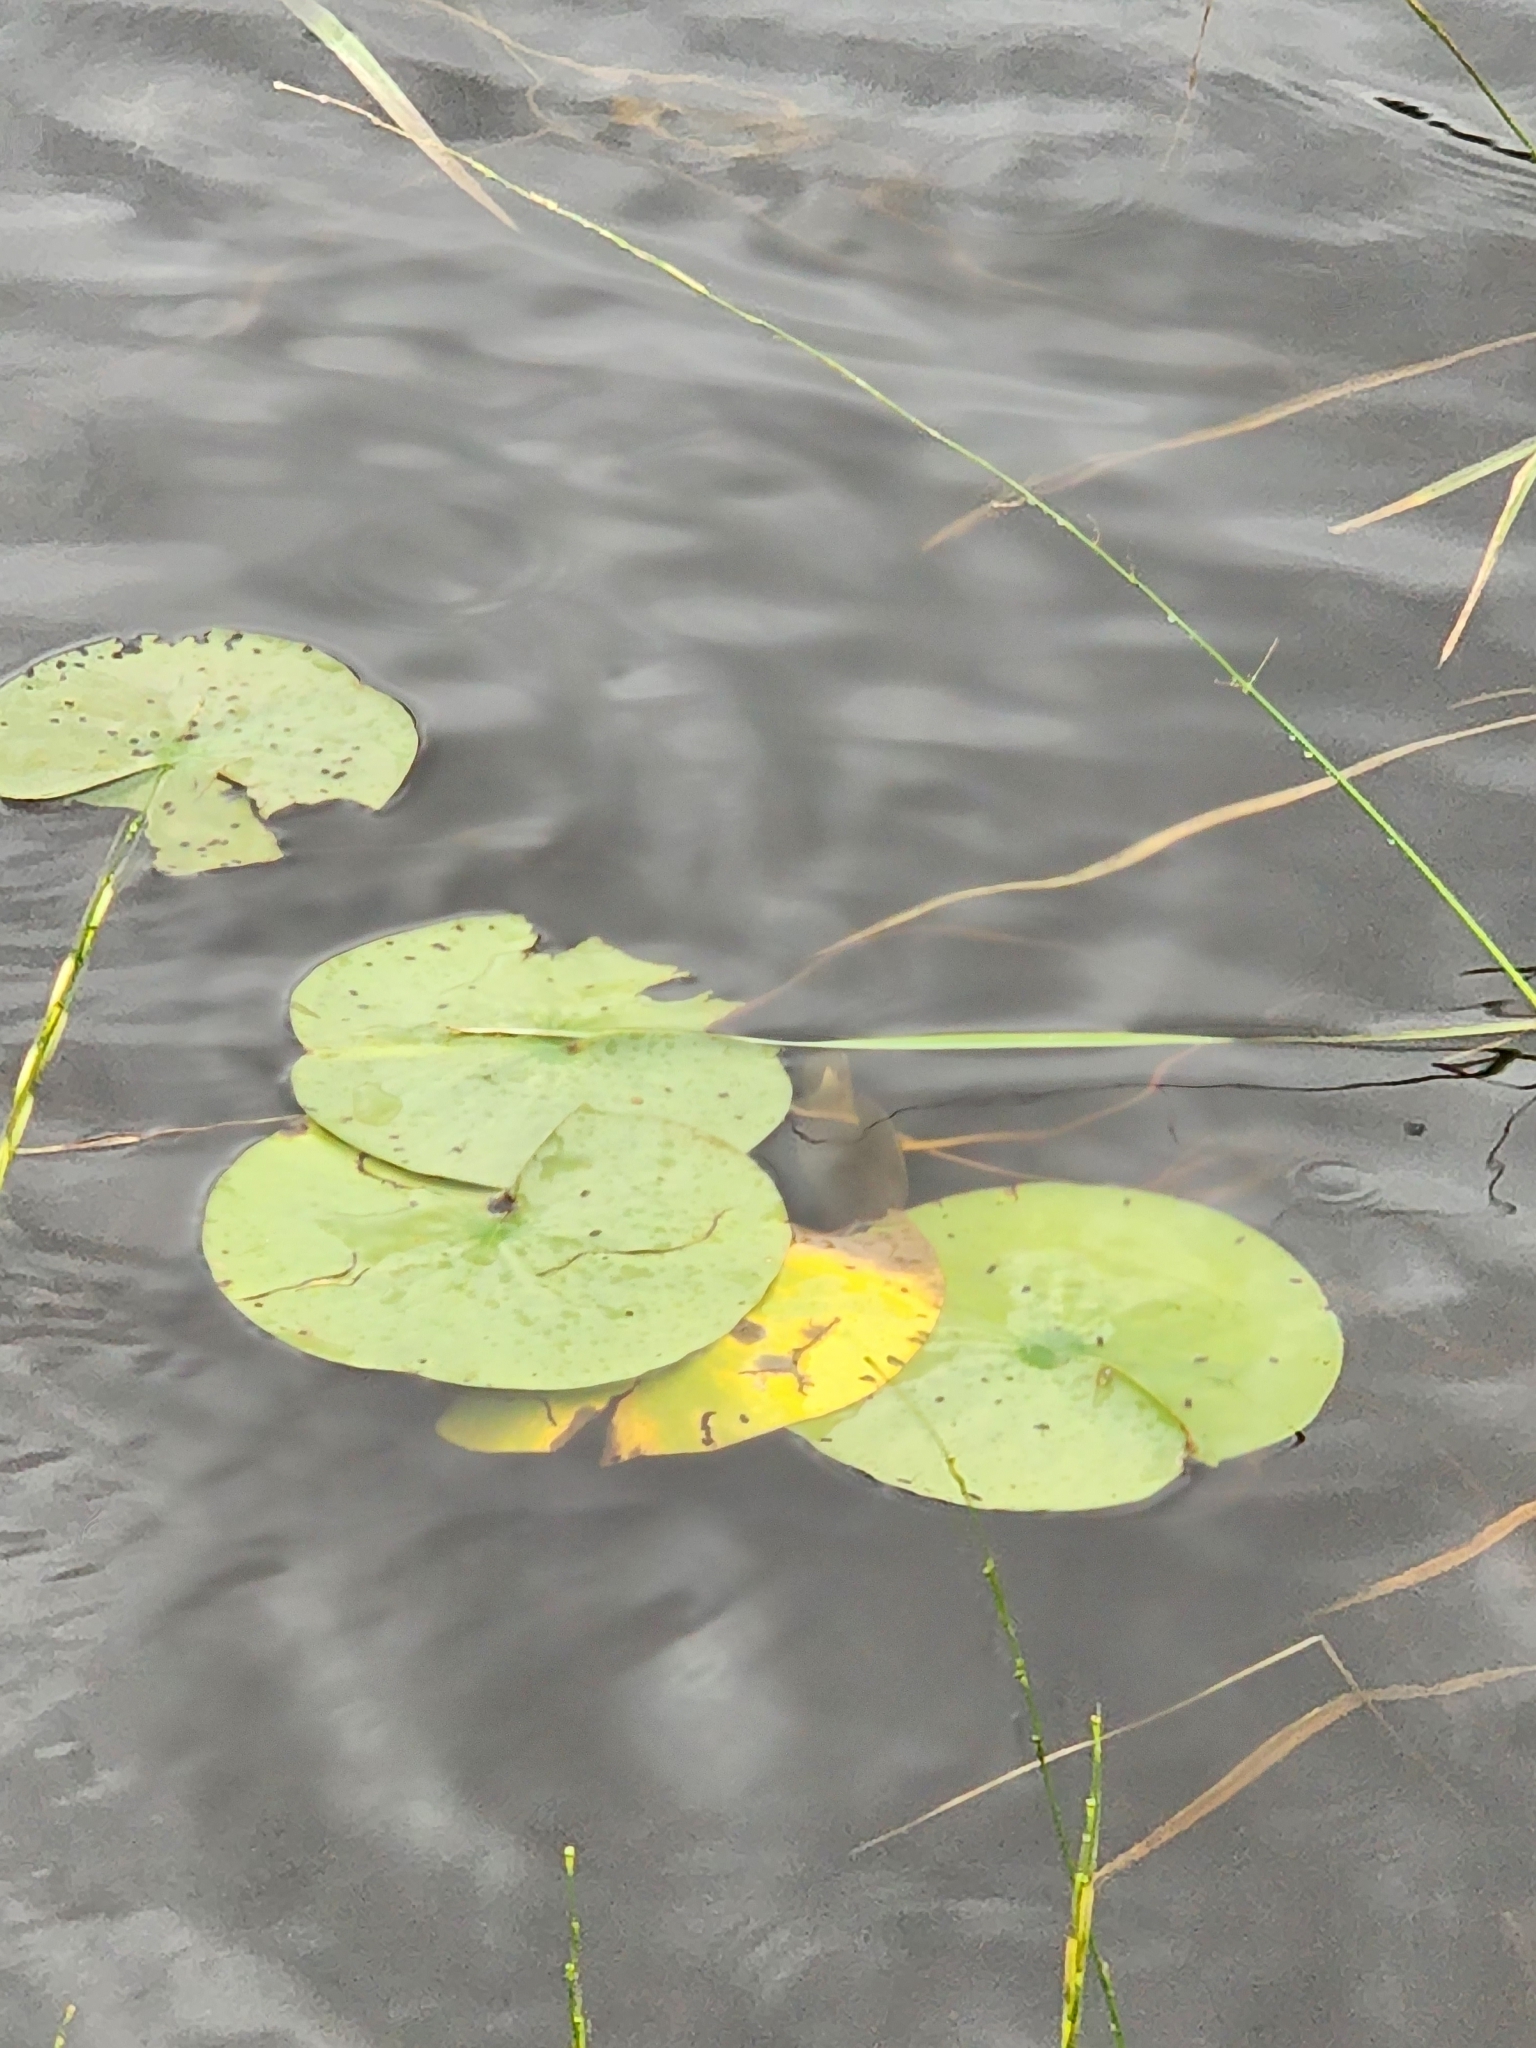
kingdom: Plantae
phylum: Tracheophyta
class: Magnoliopsida
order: Nymphaeales
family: Nymphaeaceae
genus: Nymphaea
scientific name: Nymphaea odorata
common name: Fragrant water-lily
